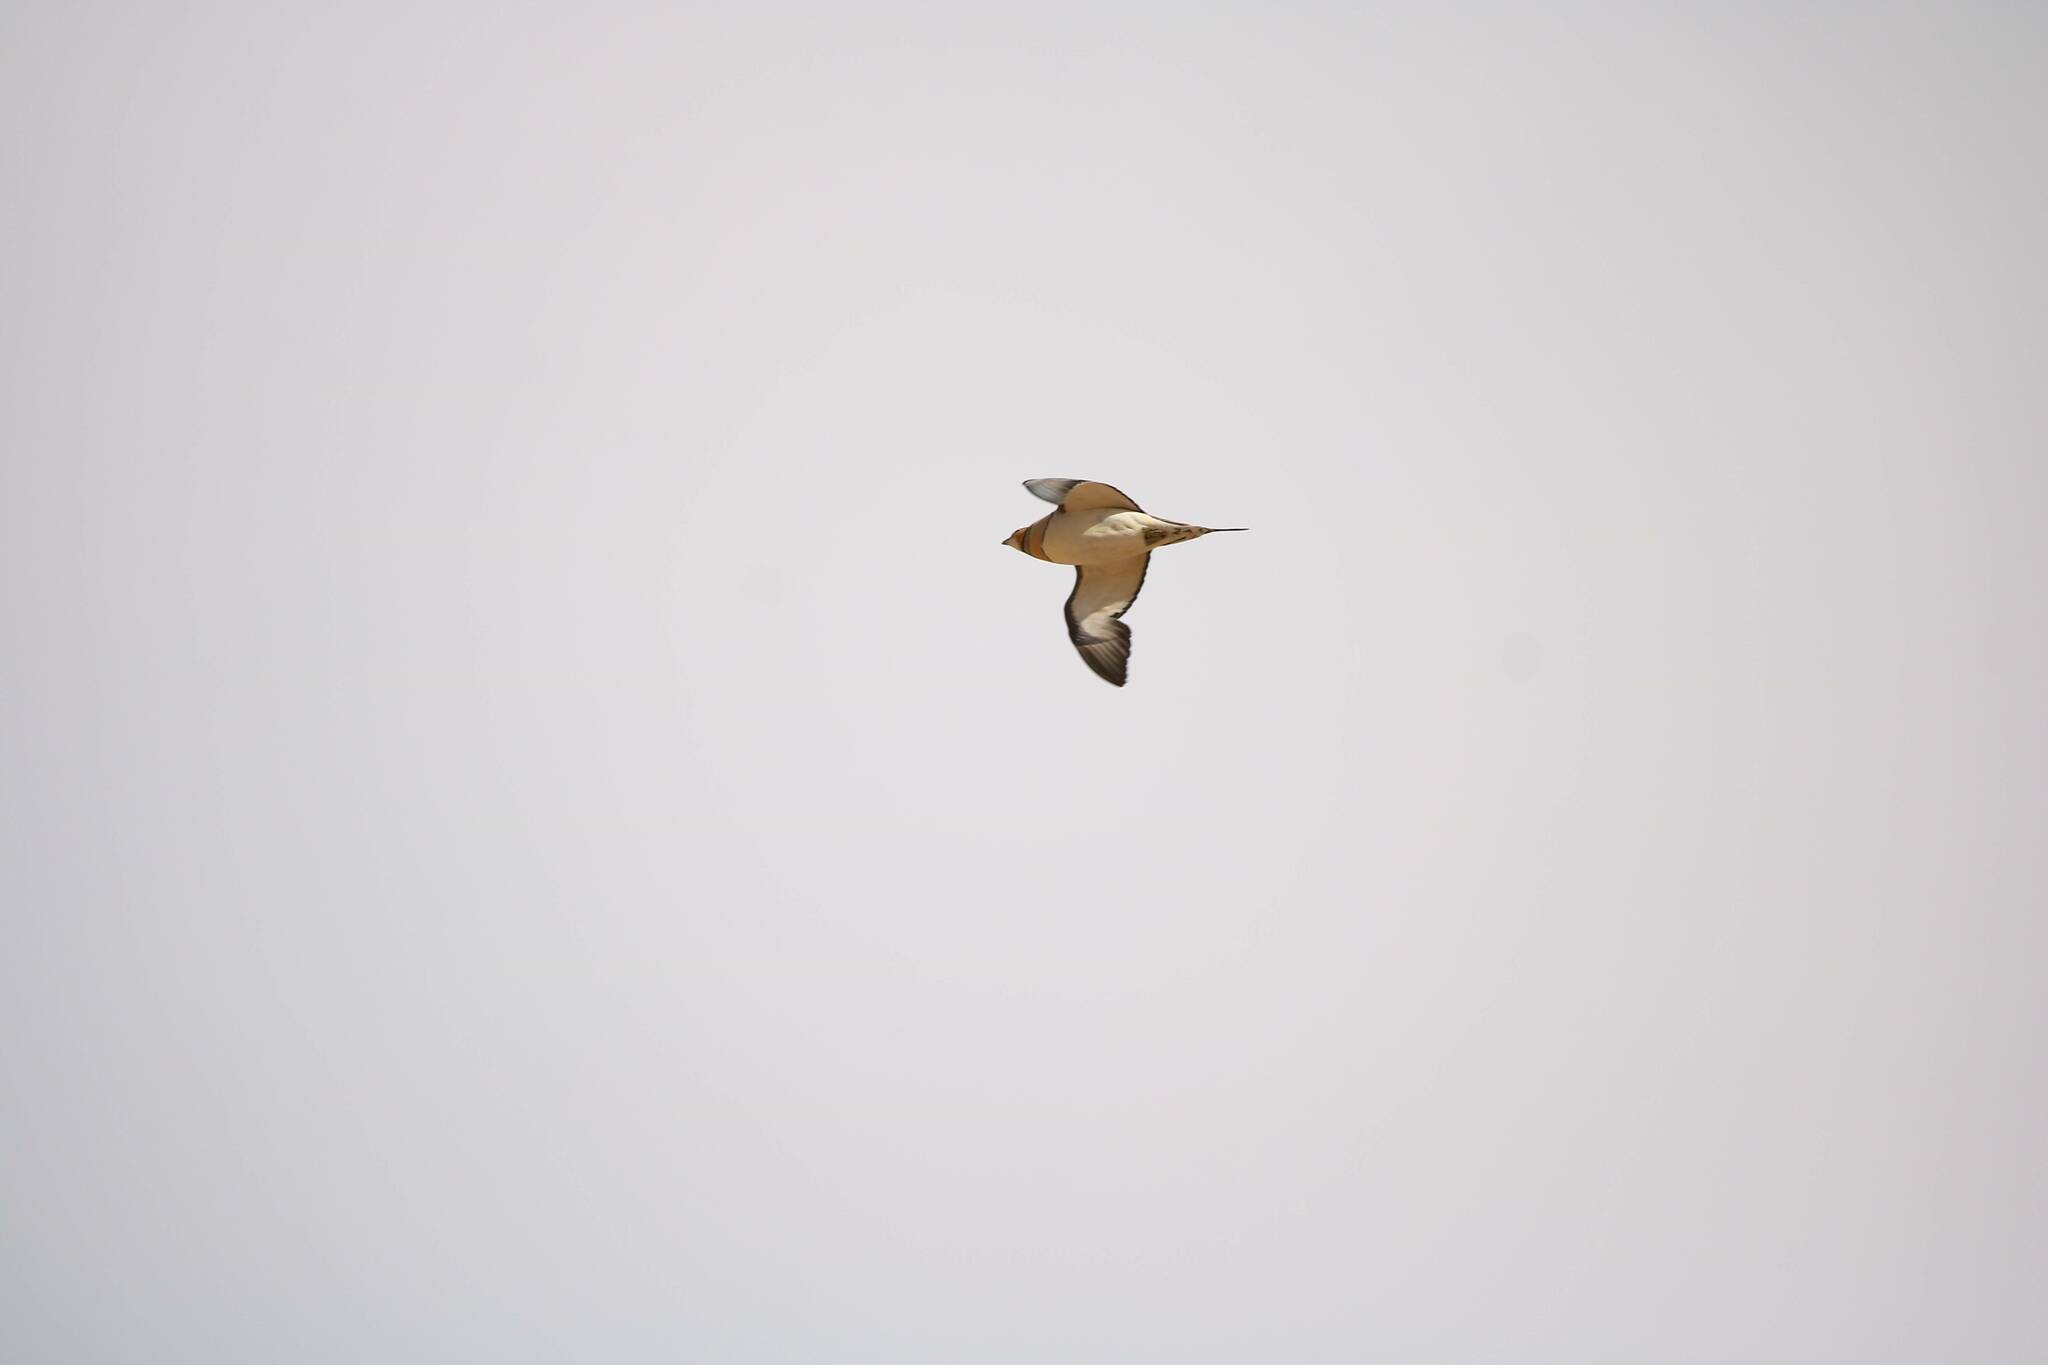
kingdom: Animalia
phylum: Chordata
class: Aves
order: Pteroclidiformes
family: Pteroclididae
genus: Pterocles
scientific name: Pterocles alchata
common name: Pin-tailed sandgrouse
